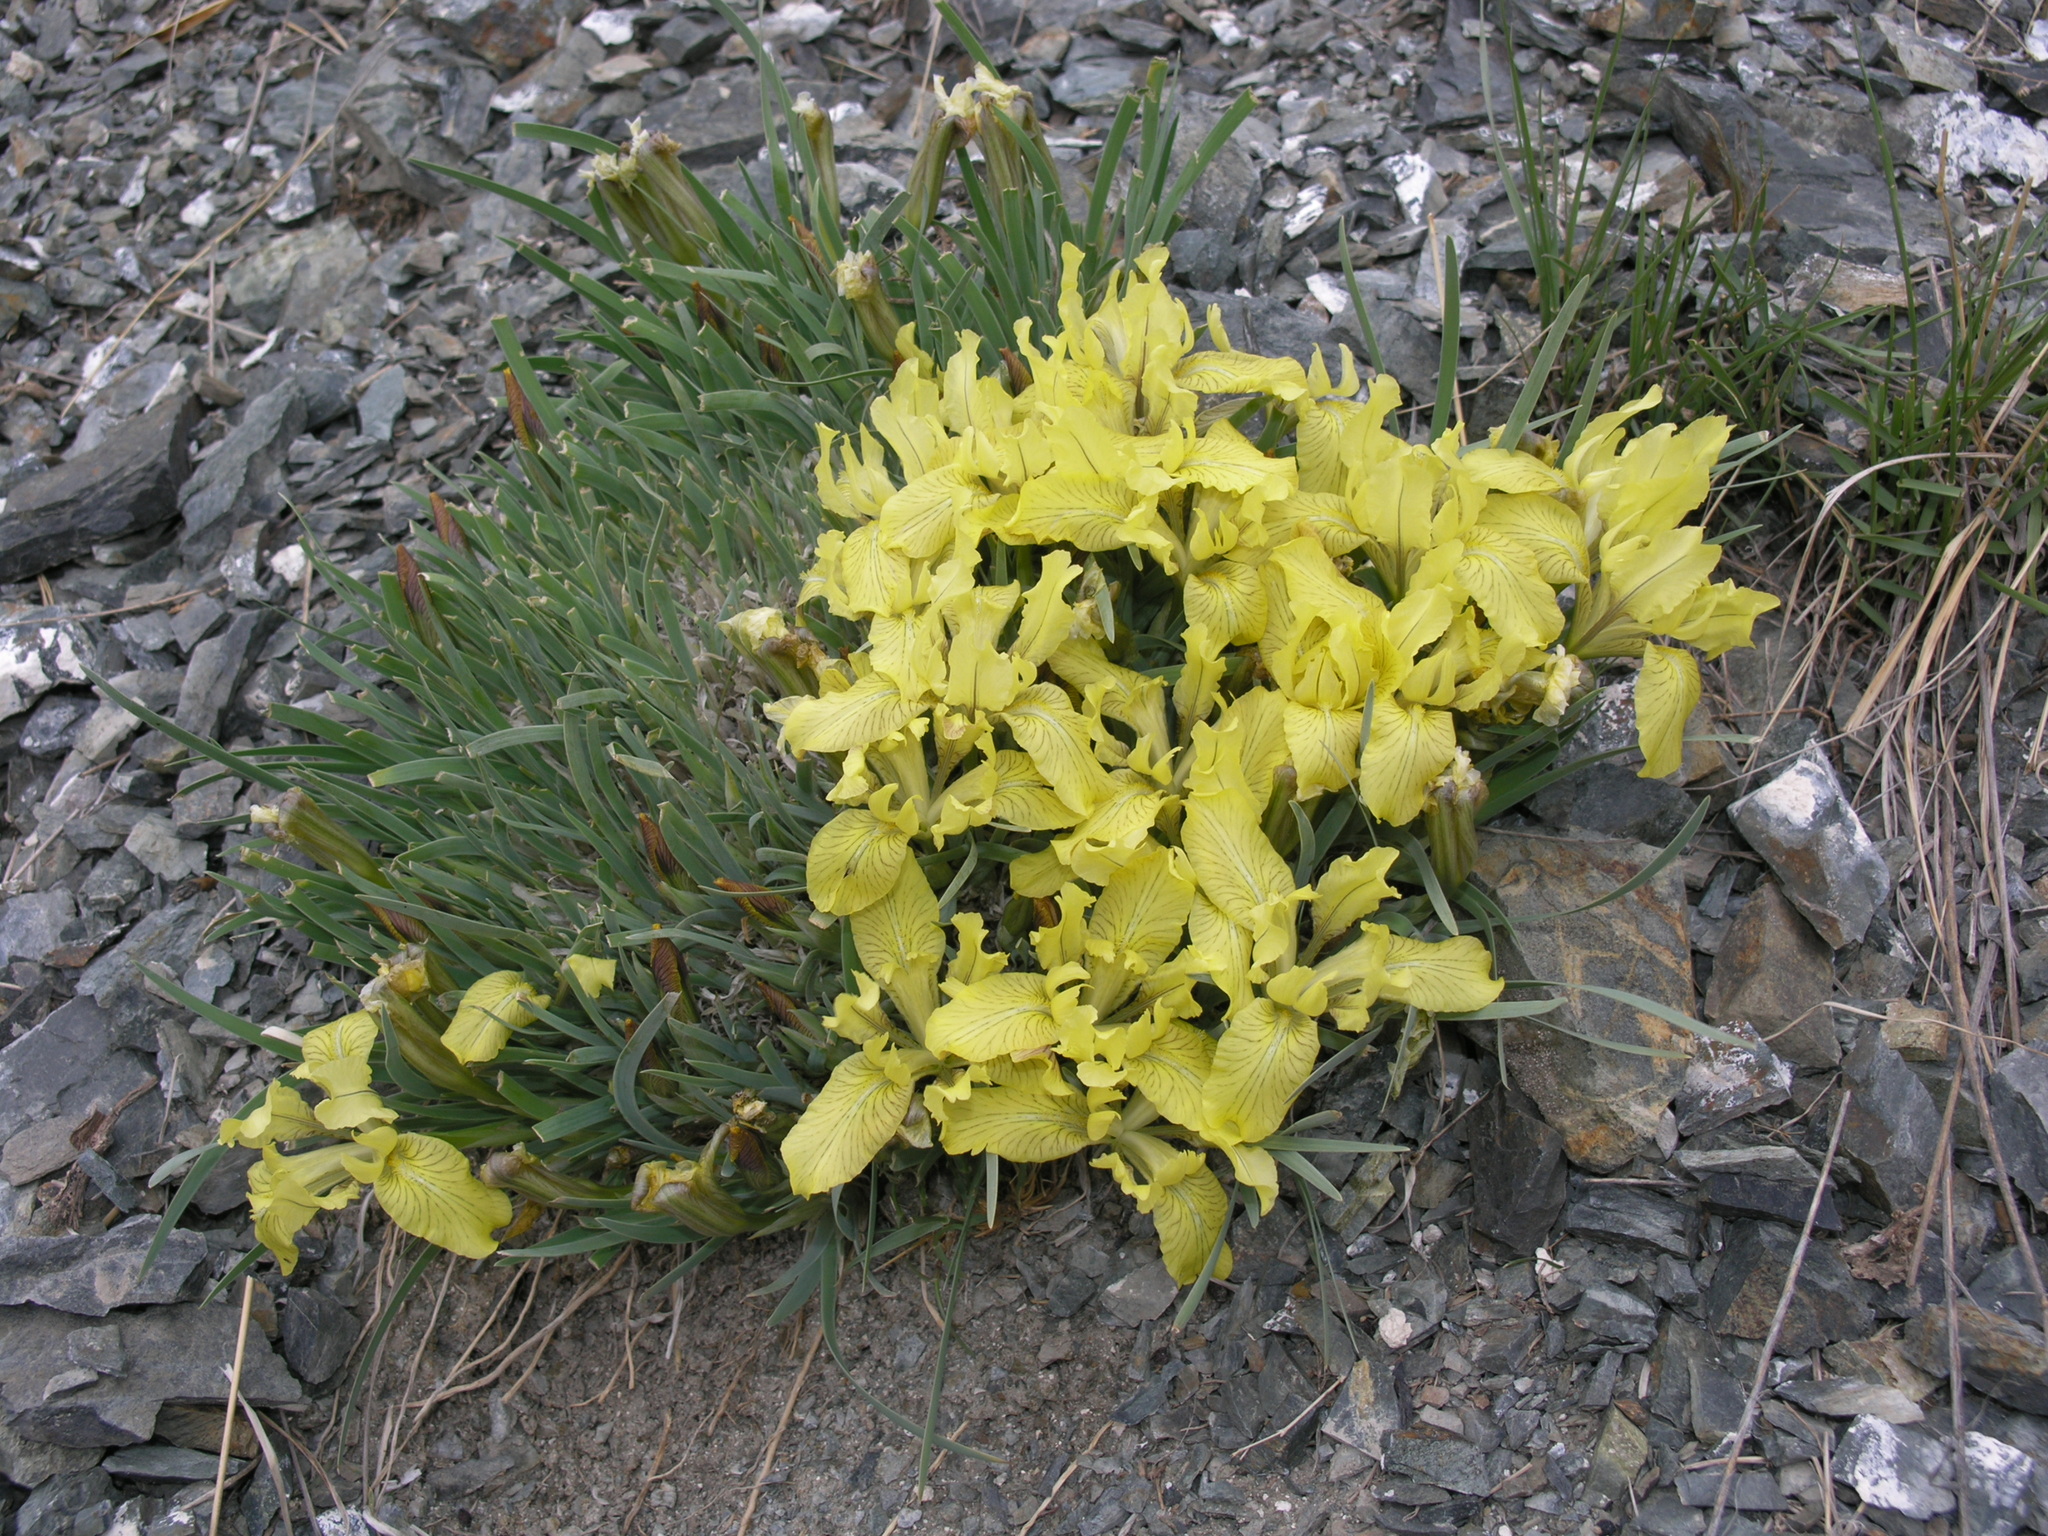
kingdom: Plantae
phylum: Tracheophyta
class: Liliopsida
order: Asparagales
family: Iridaceae
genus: Iris
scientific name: Iris potaninii
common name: Curl-sheath iris
